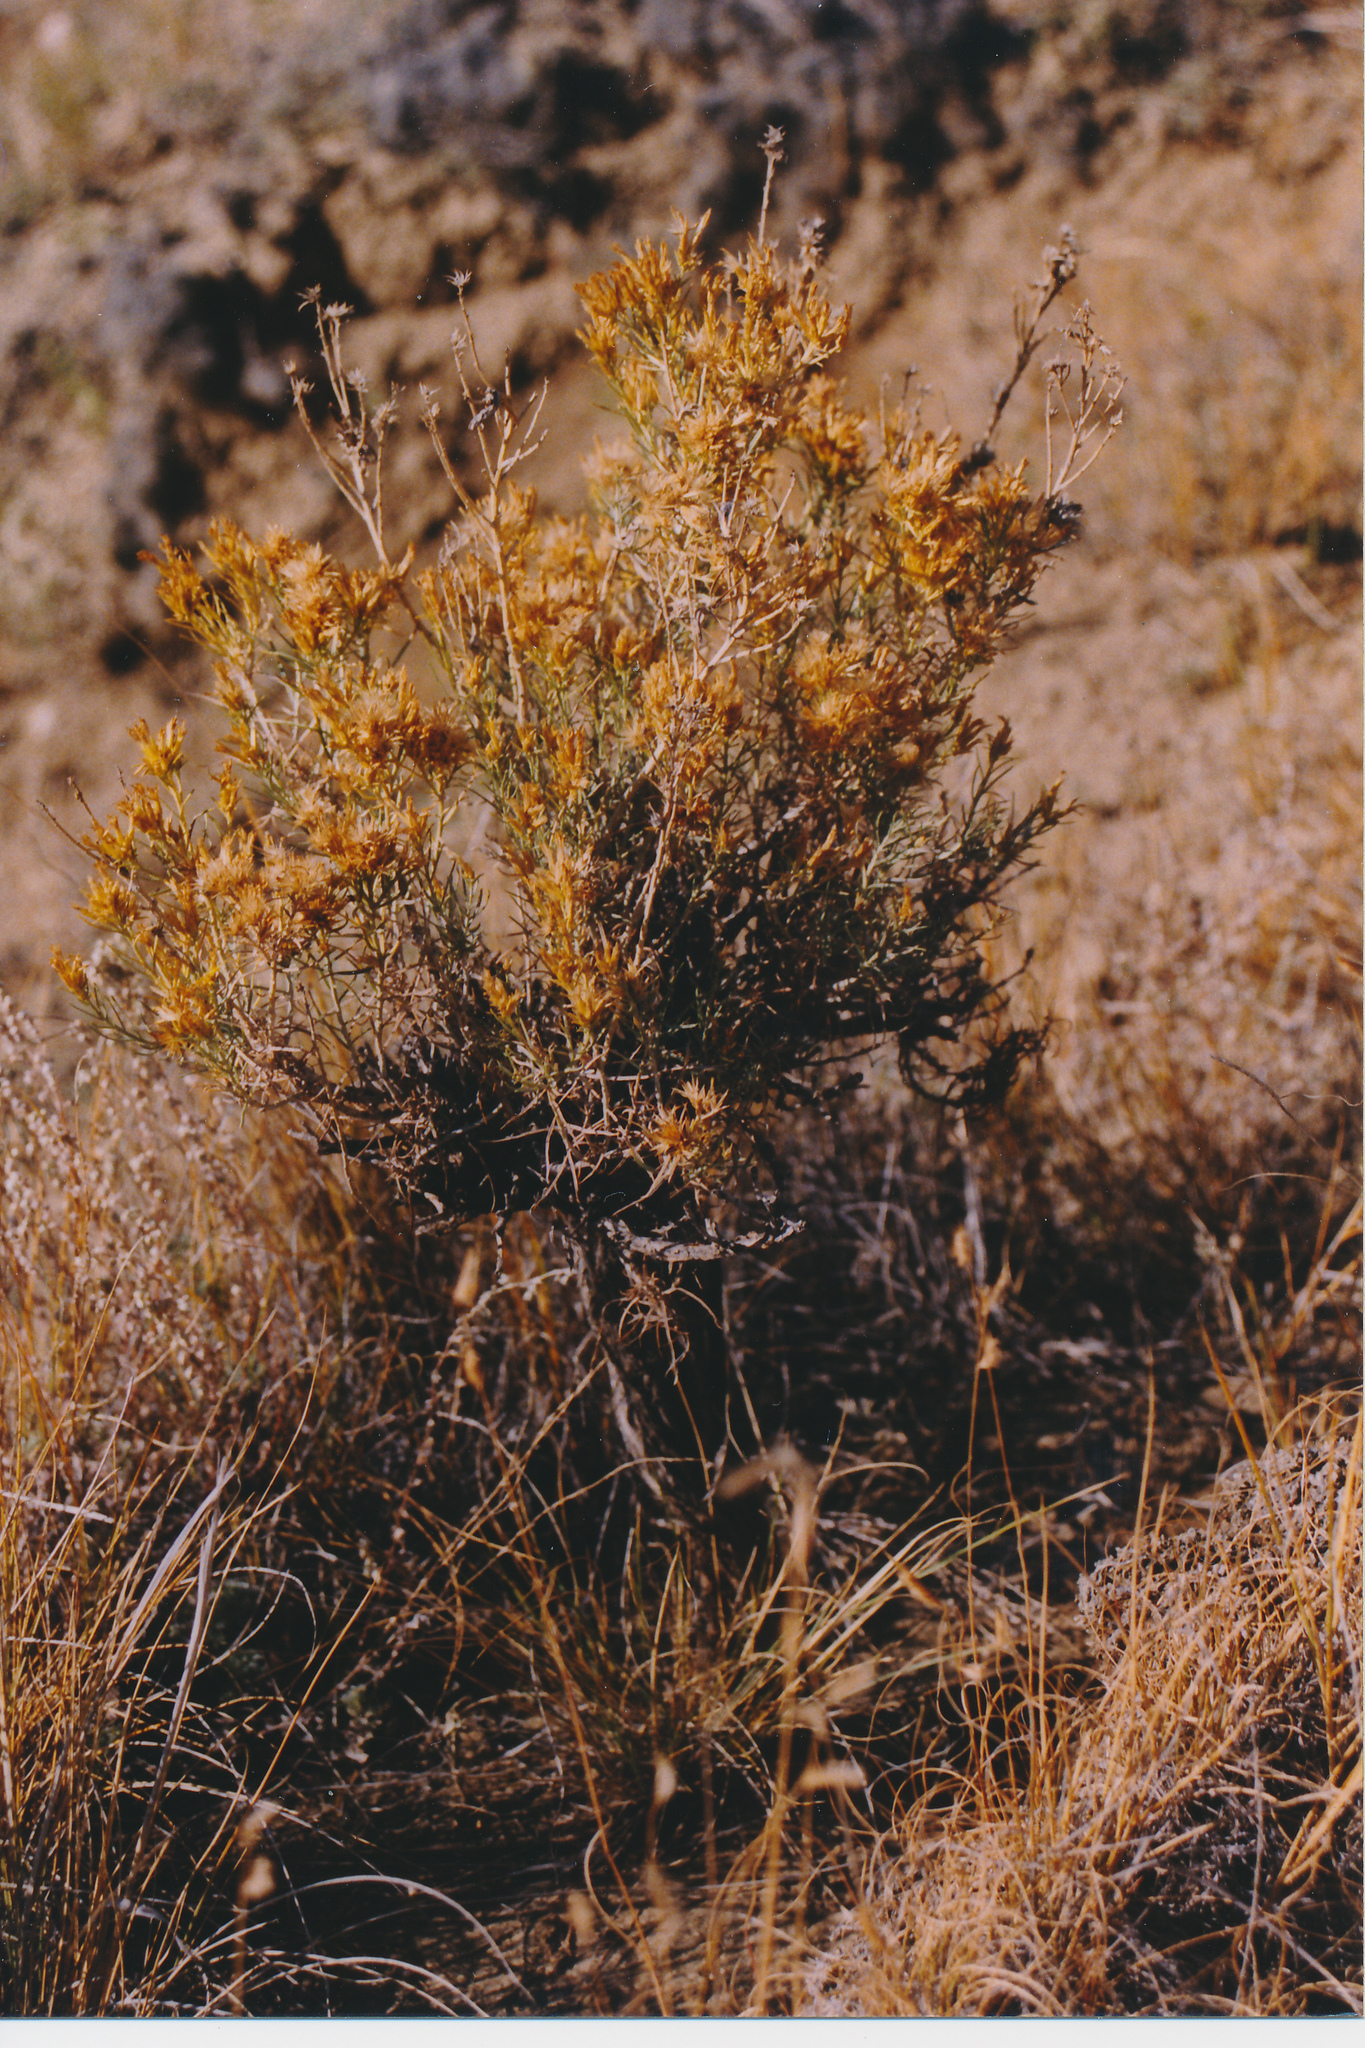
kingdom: Plantae
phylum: Tracheophyta
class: Magnoliopsida
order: Asterales
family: Asteraceae
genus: Ericameria
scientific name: Ericameria nauseosa
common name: Rubber rabbitbrush
